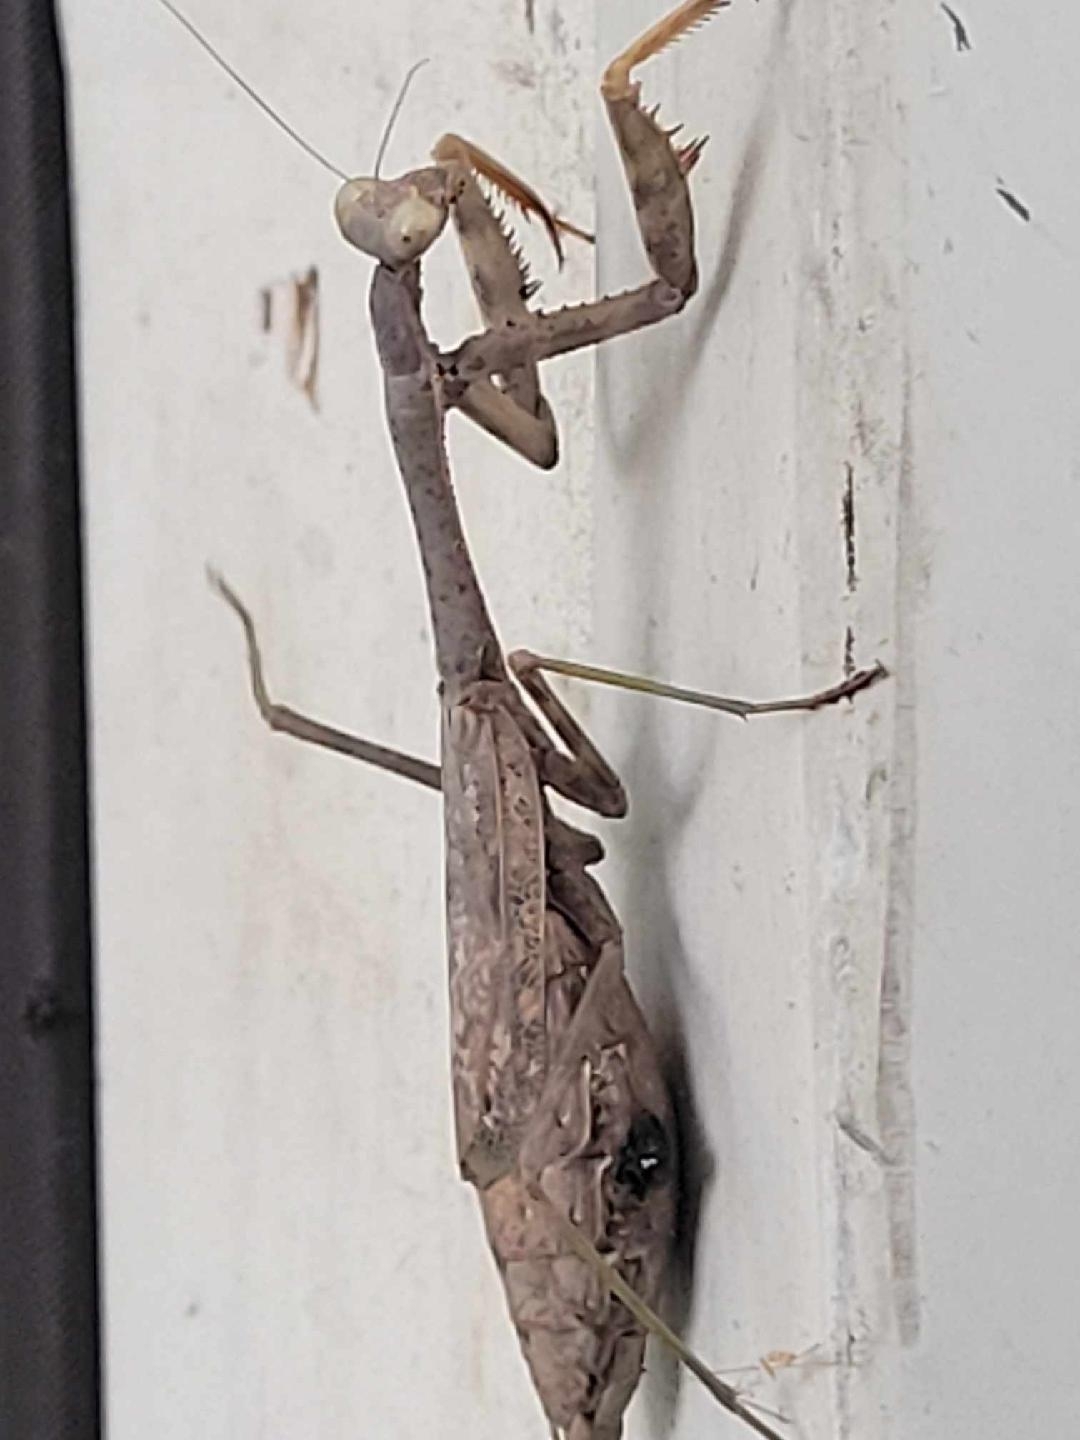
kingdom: Animalia
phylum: Arthropoda
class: Insecta
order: Mantodea
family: Mantidae
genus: Stagmomantis
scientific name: Stagmomantis carolina
